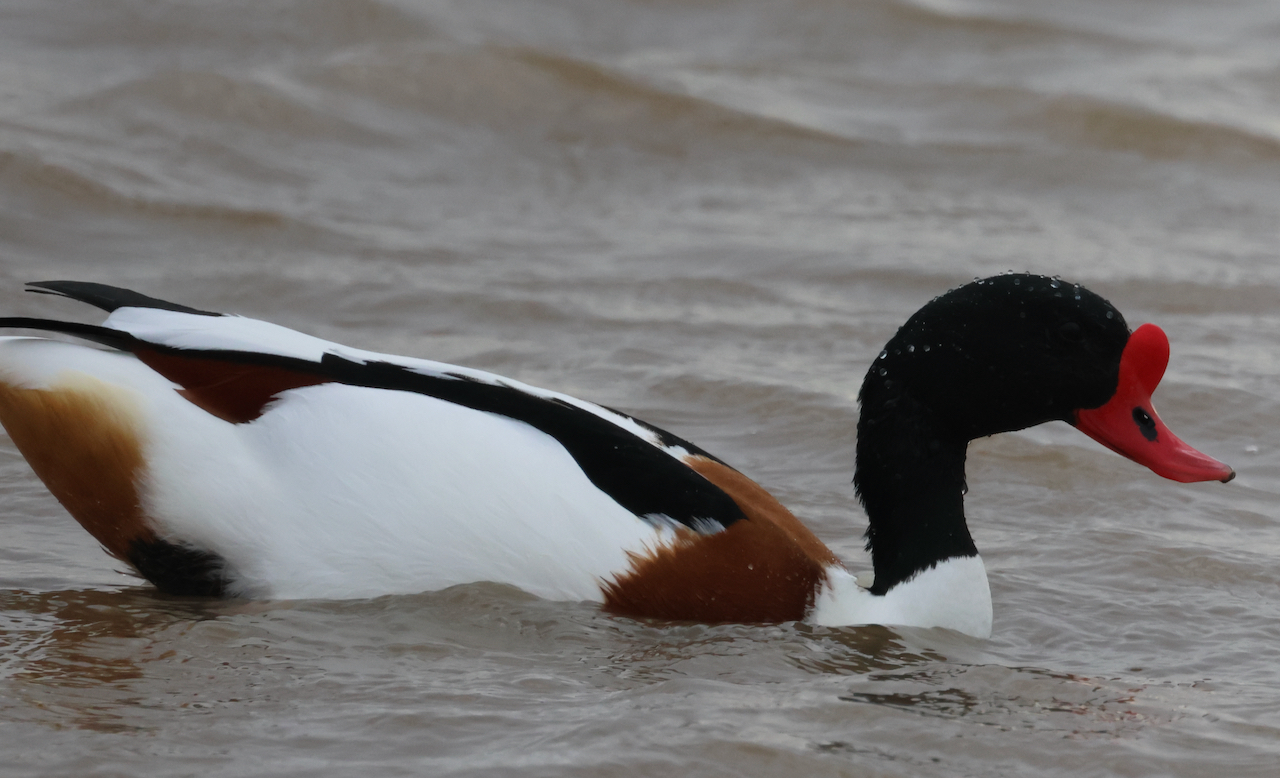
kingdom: Animalia
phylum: Chordata
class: Aves
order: Anseriformes
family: Anatidae
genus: Tadorna
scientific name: Tadorna tadorna
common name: Common shelduck
